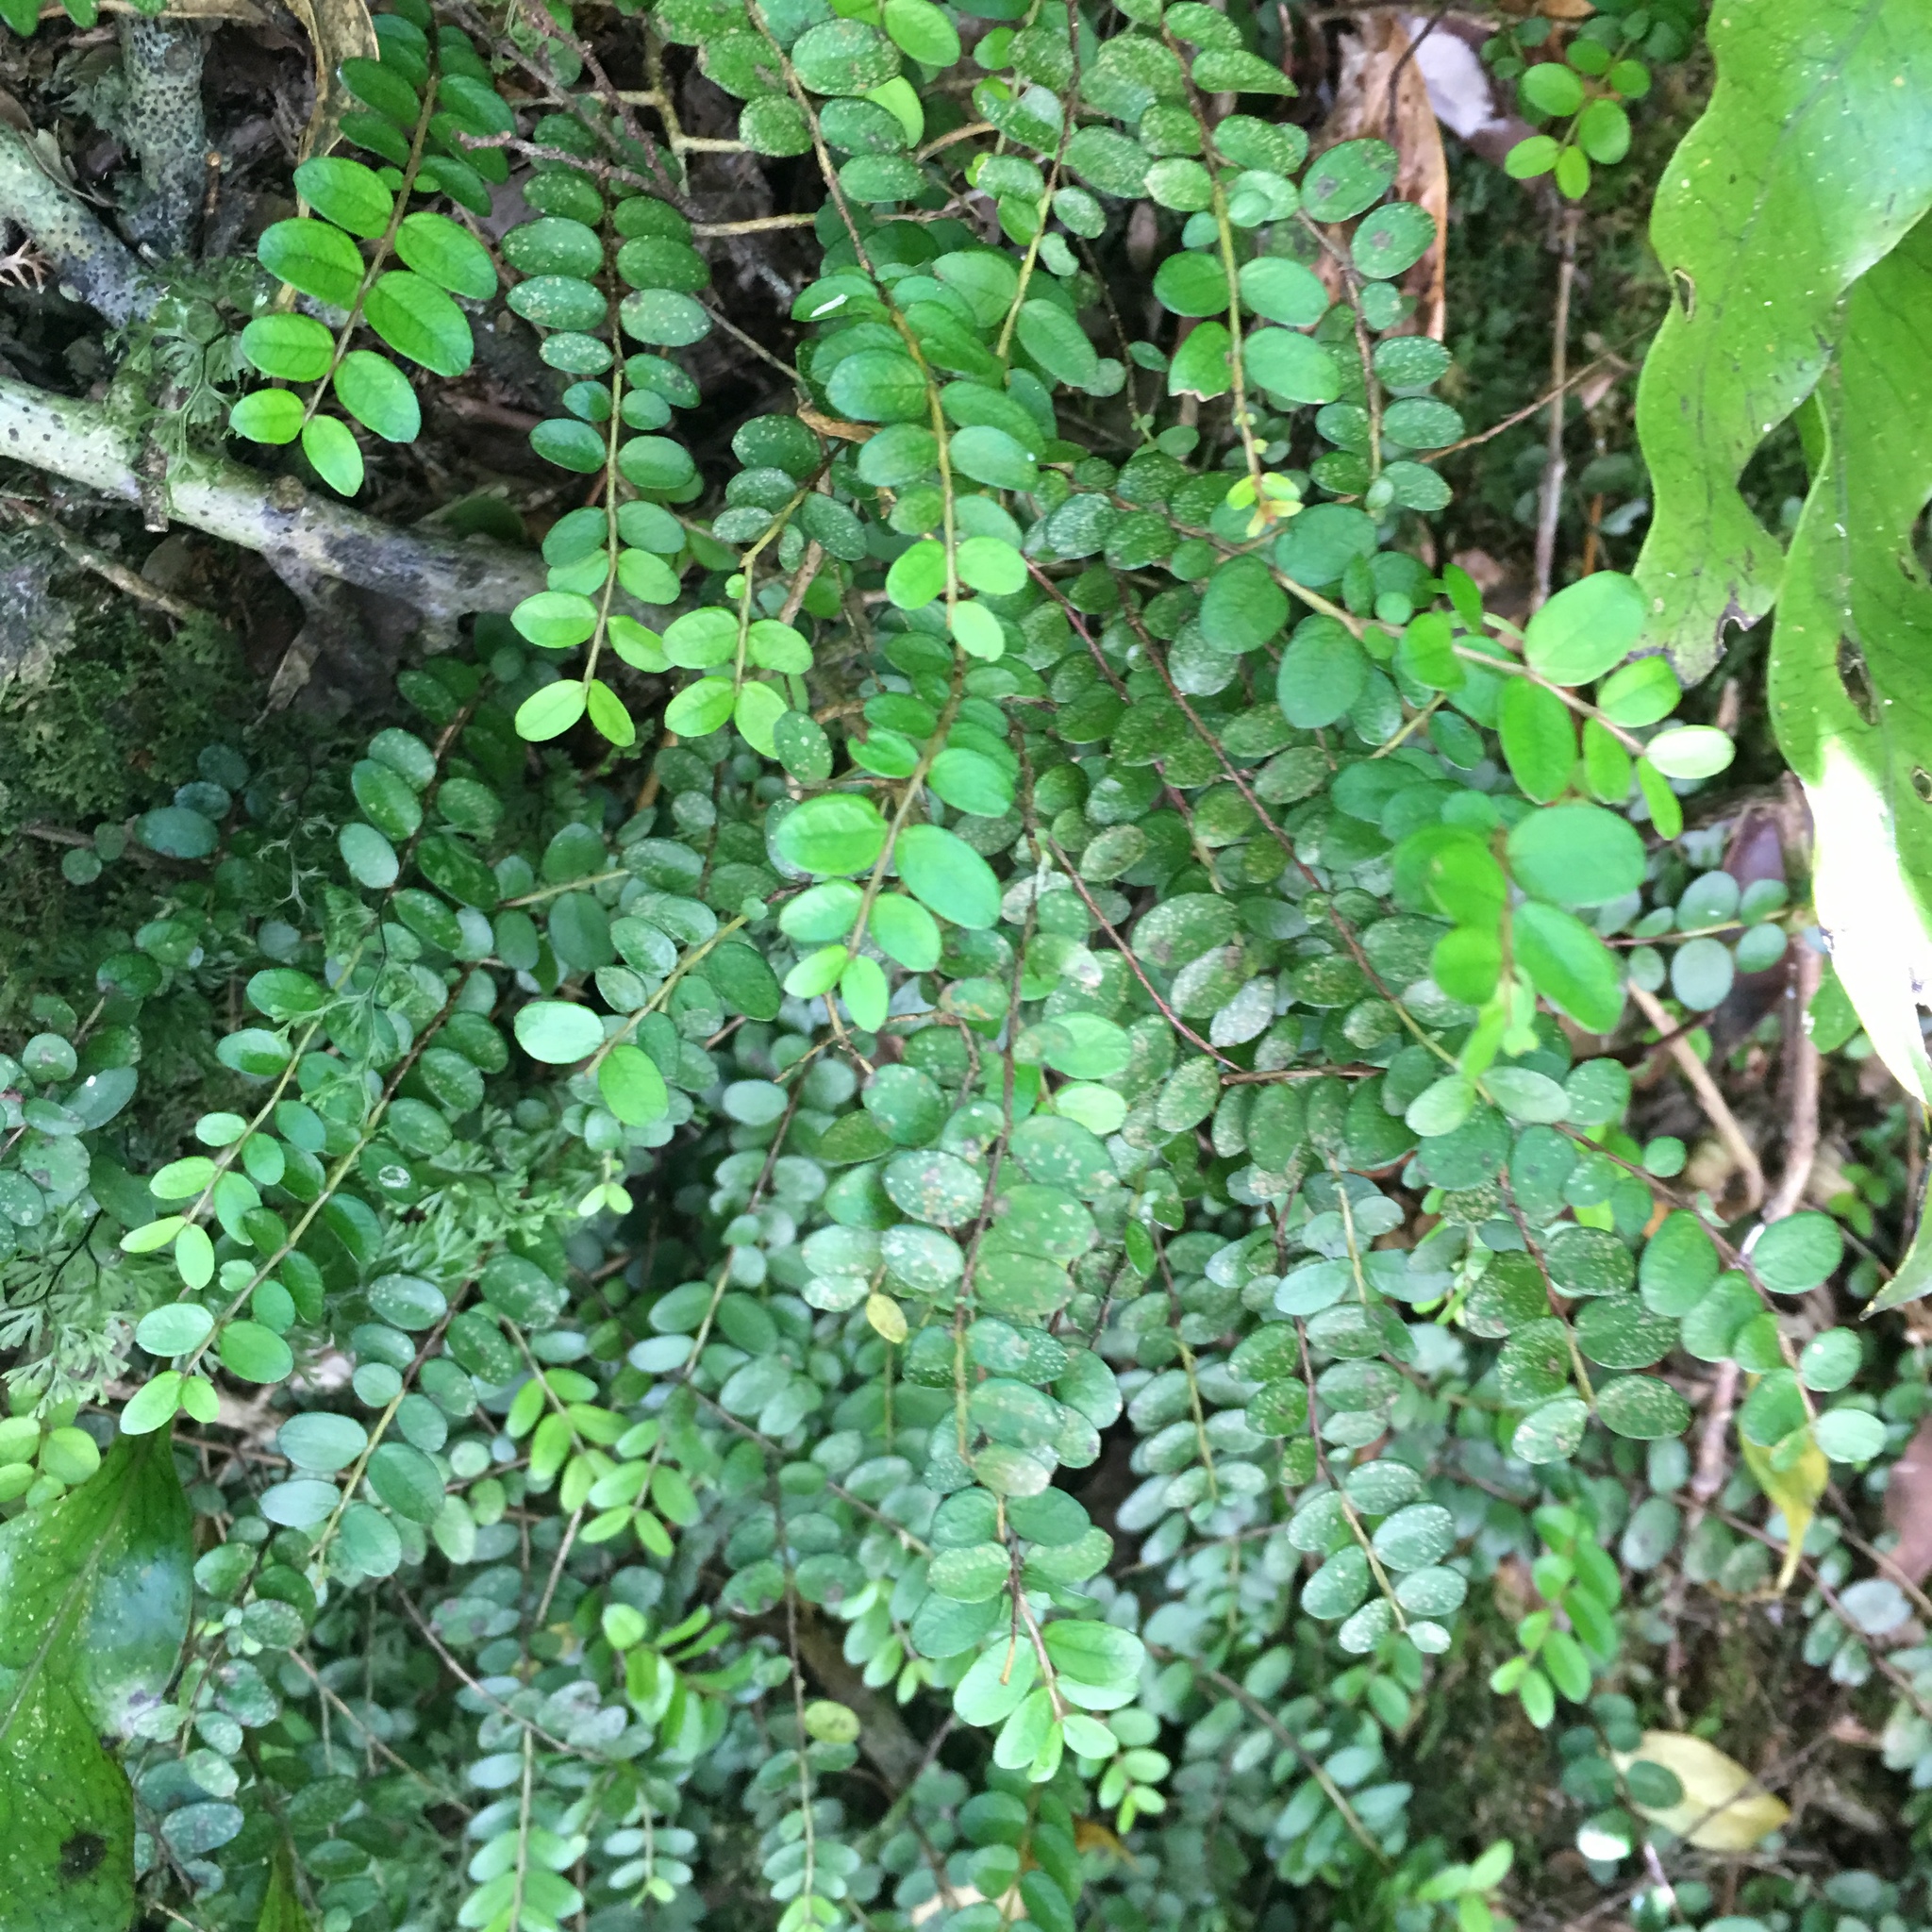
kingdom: Plantae
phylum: Tracheophyta
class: Magnoliopsida
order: Myrtales
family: Myrtaceae
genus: Metrosideros
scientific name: Metrosideros diffusa
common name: Small ratavine
